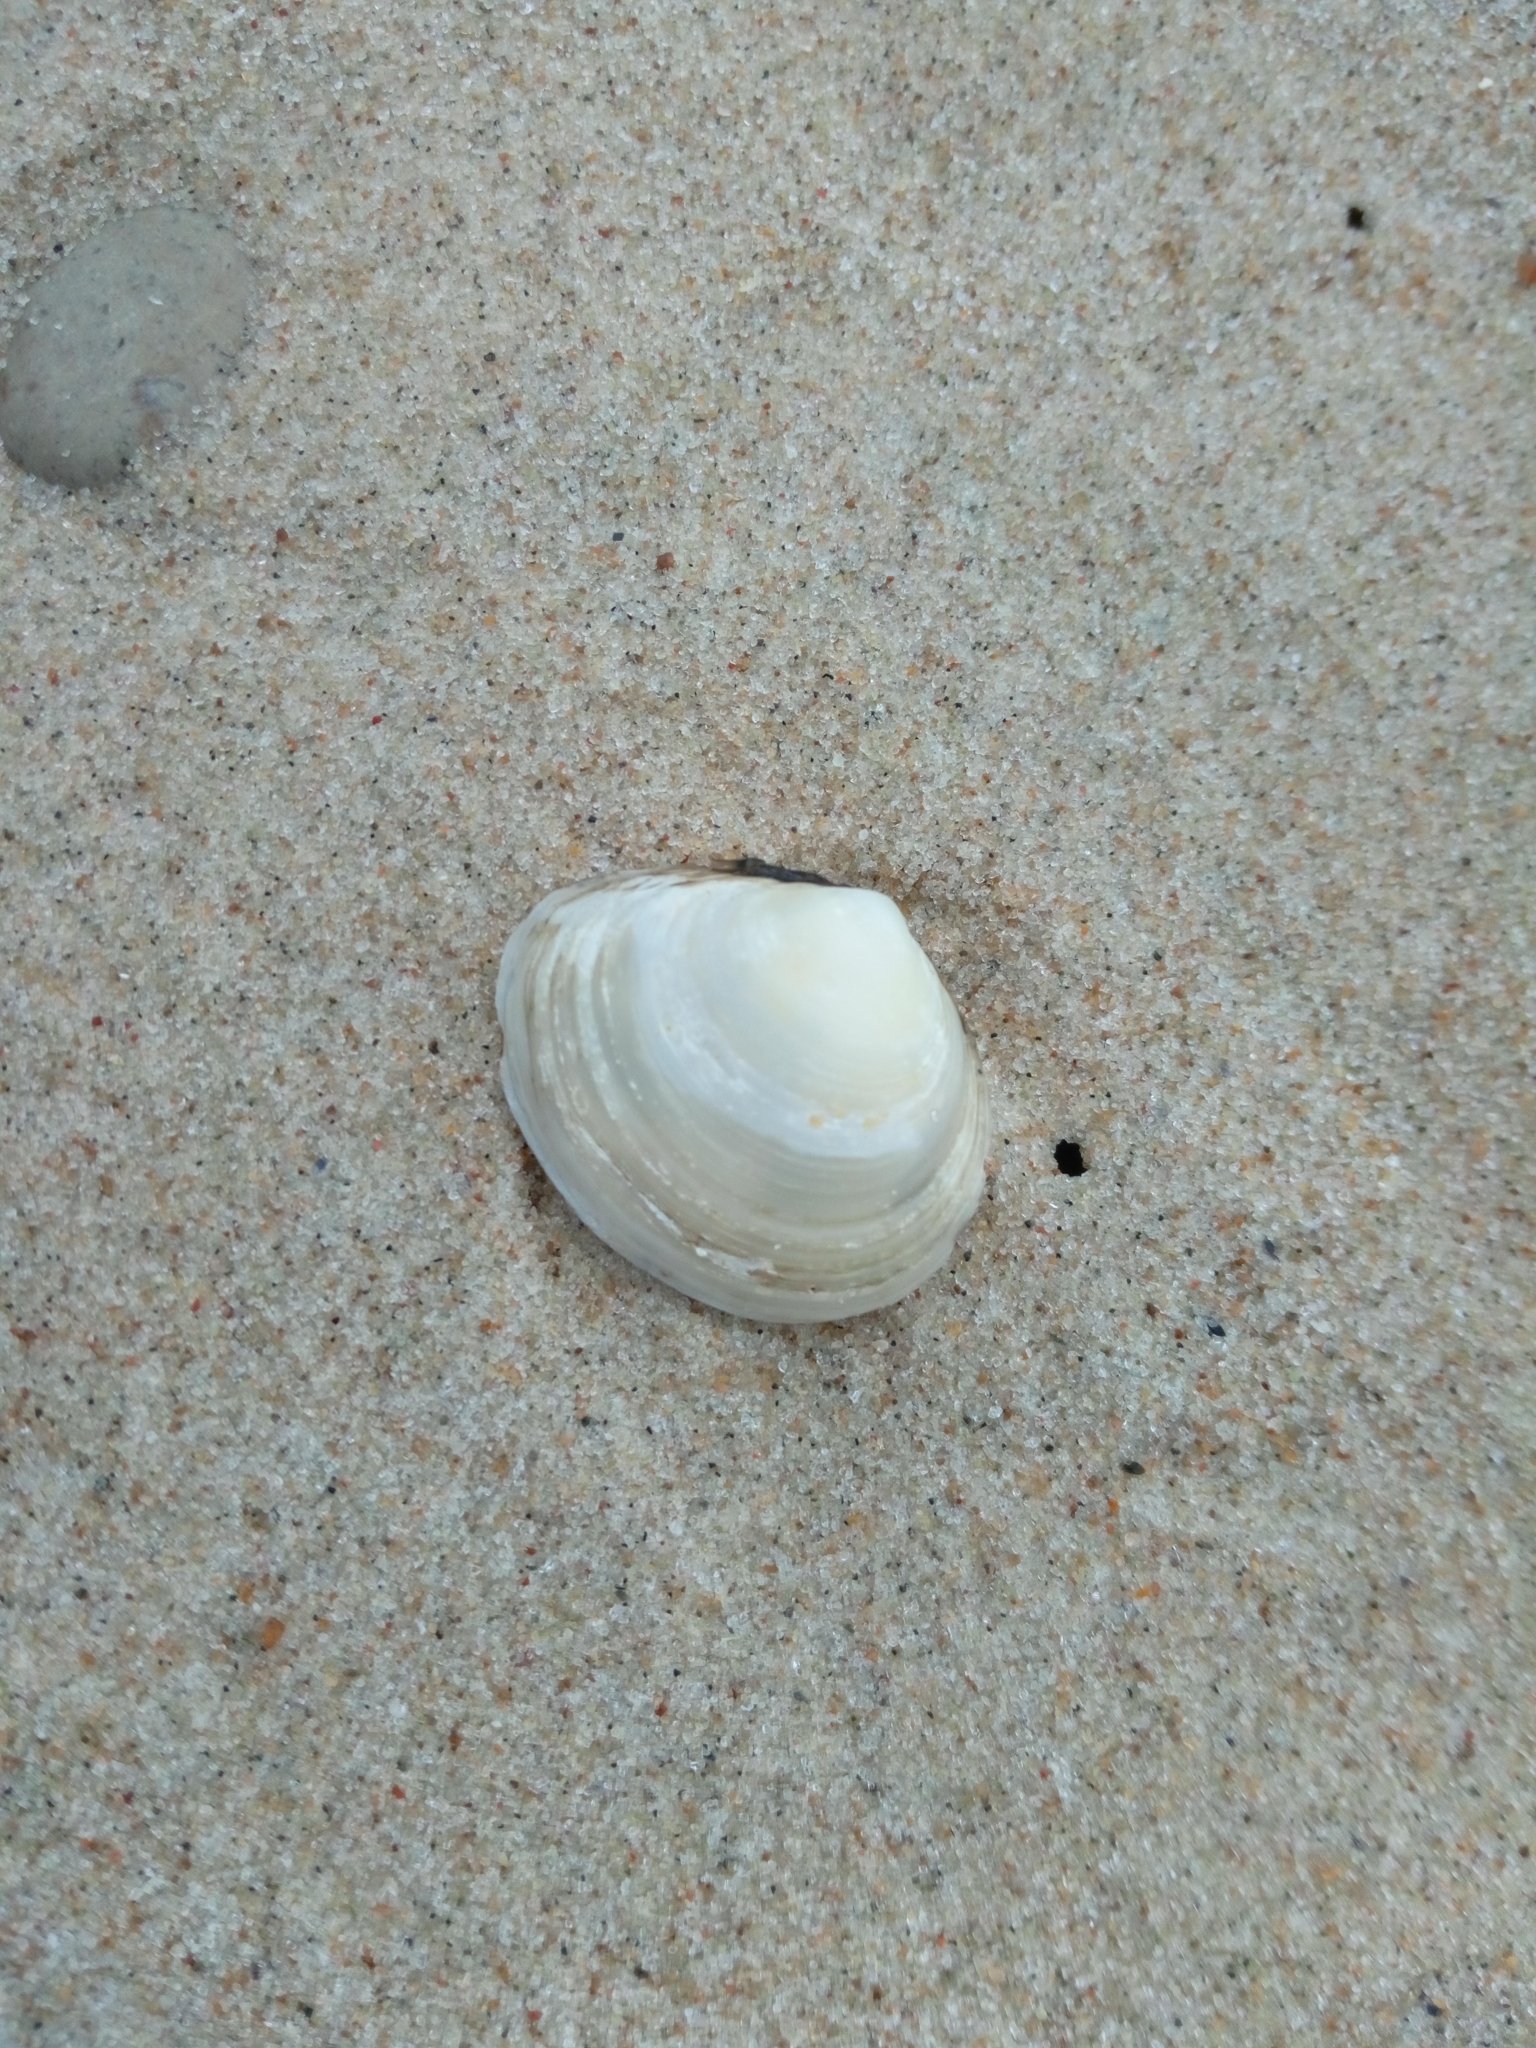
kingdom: Animalia
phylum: Mollusca
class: Bivalvia
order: Cardiida
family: Tellinidae
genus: Macoma
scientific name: Macoma balthica
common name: Baltic tellin
